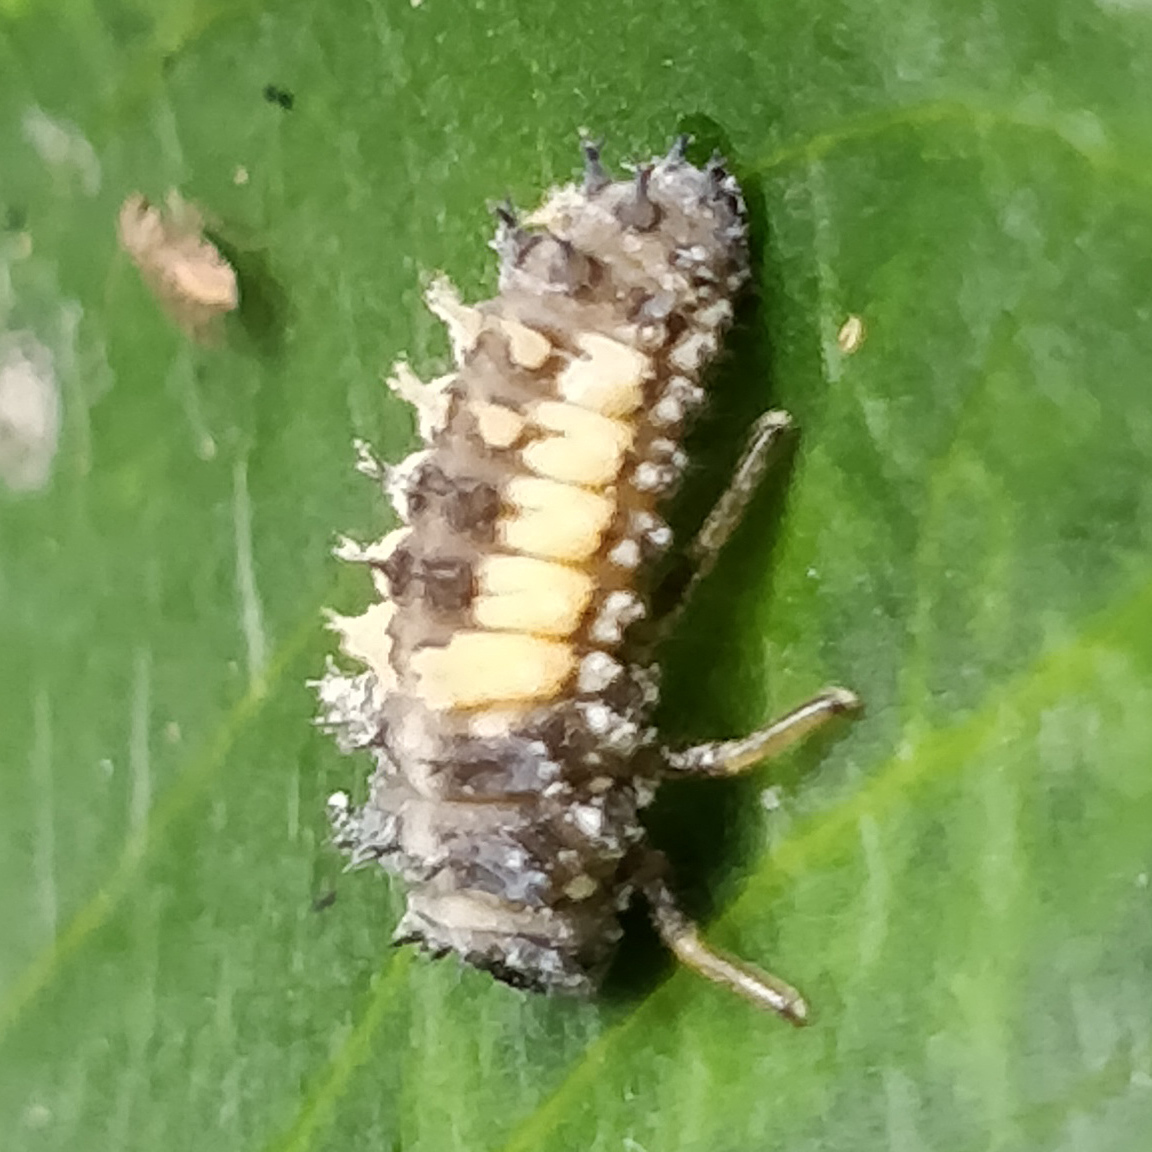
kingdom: Animalia
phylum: Arthropoda
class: Insecta
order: Coleoptera
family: Coccinellidae
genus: Harmonia
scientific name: Harmonia axyridis
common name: Harlequin ladybird
